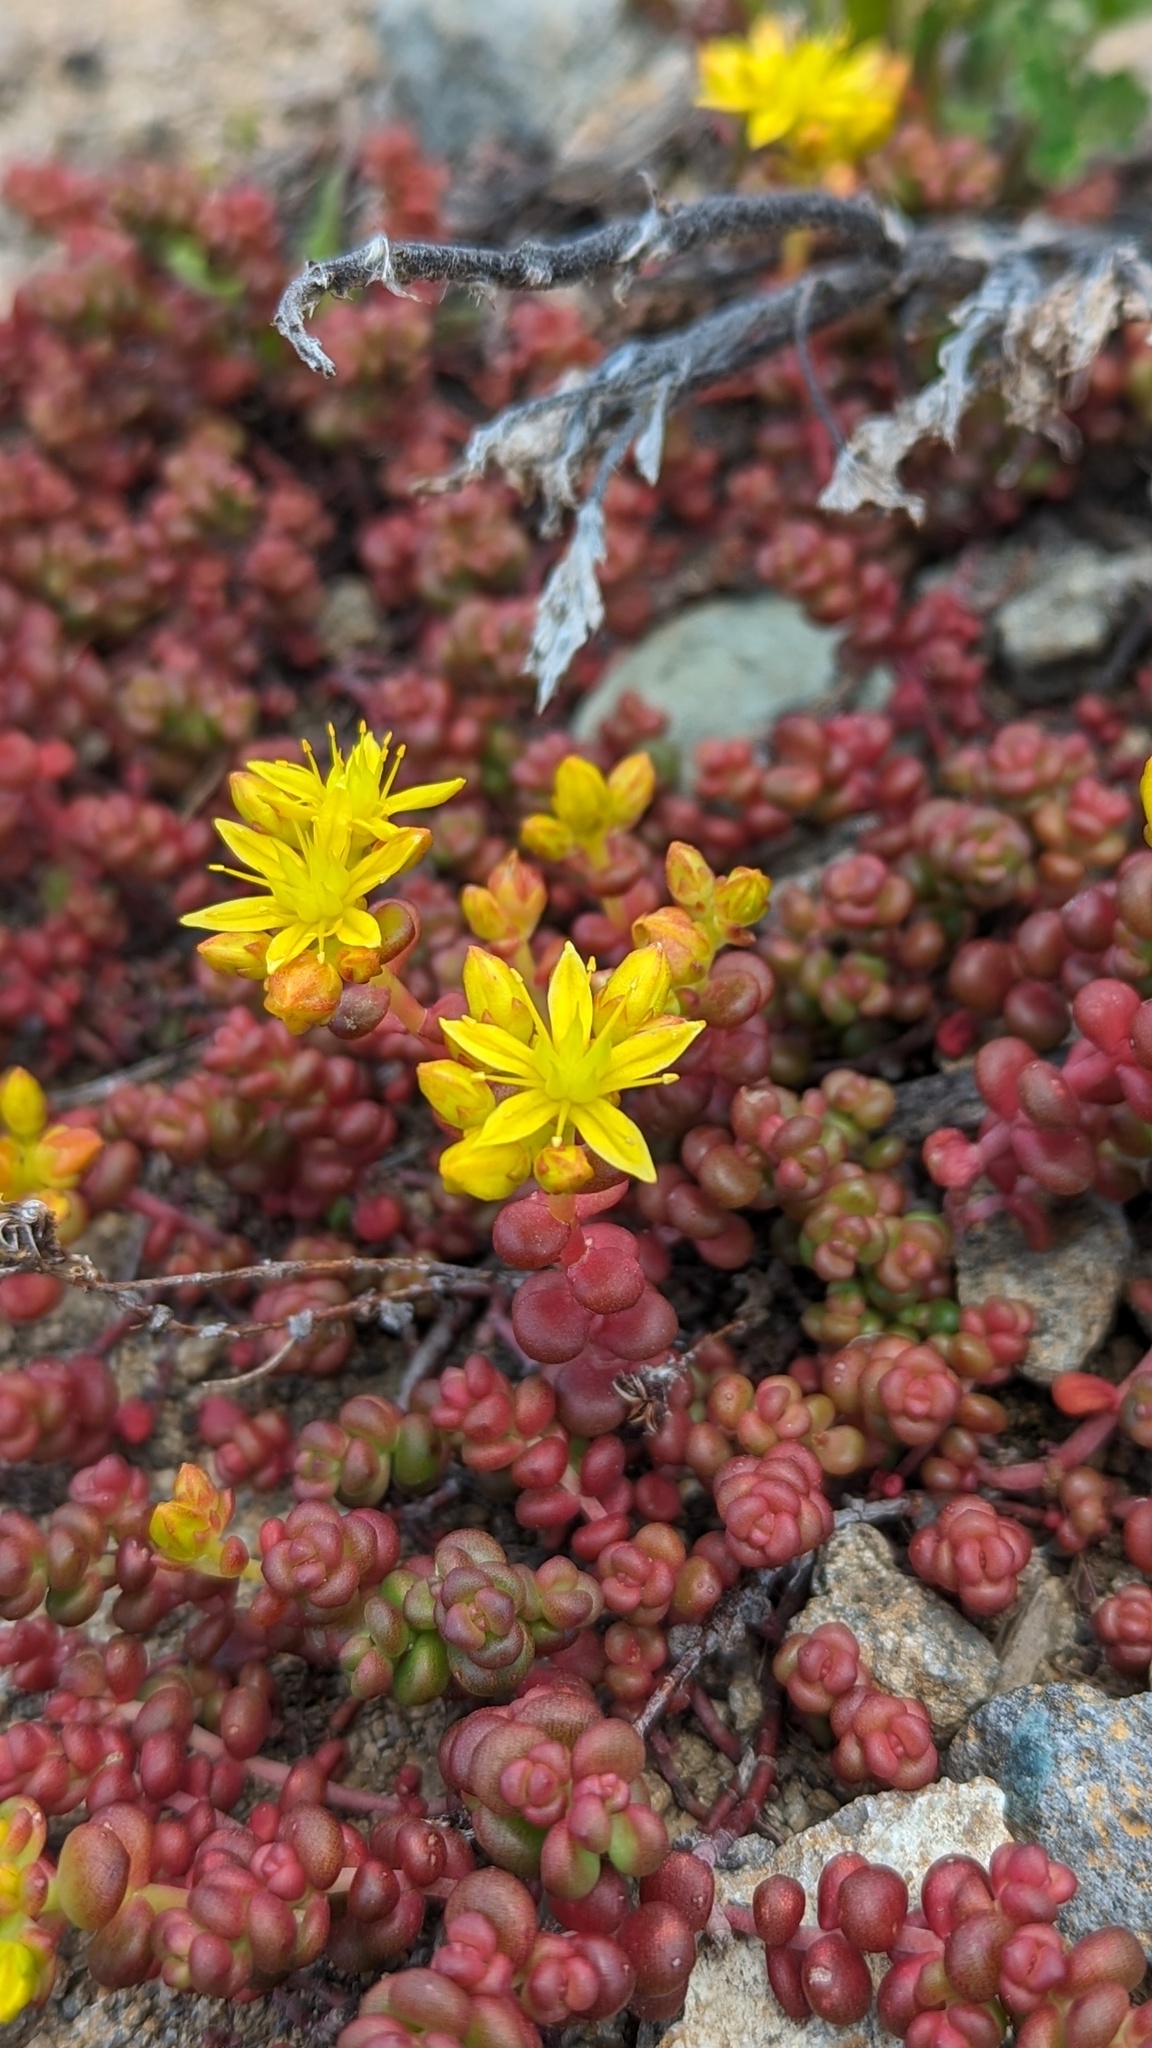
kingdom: Plantae
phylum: Tracheophyta
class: Magnoliopsida
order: Saxifragales
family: Crassulaceae
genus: Sedum
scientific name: Sedum divergens
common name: Cascade stonecrop
